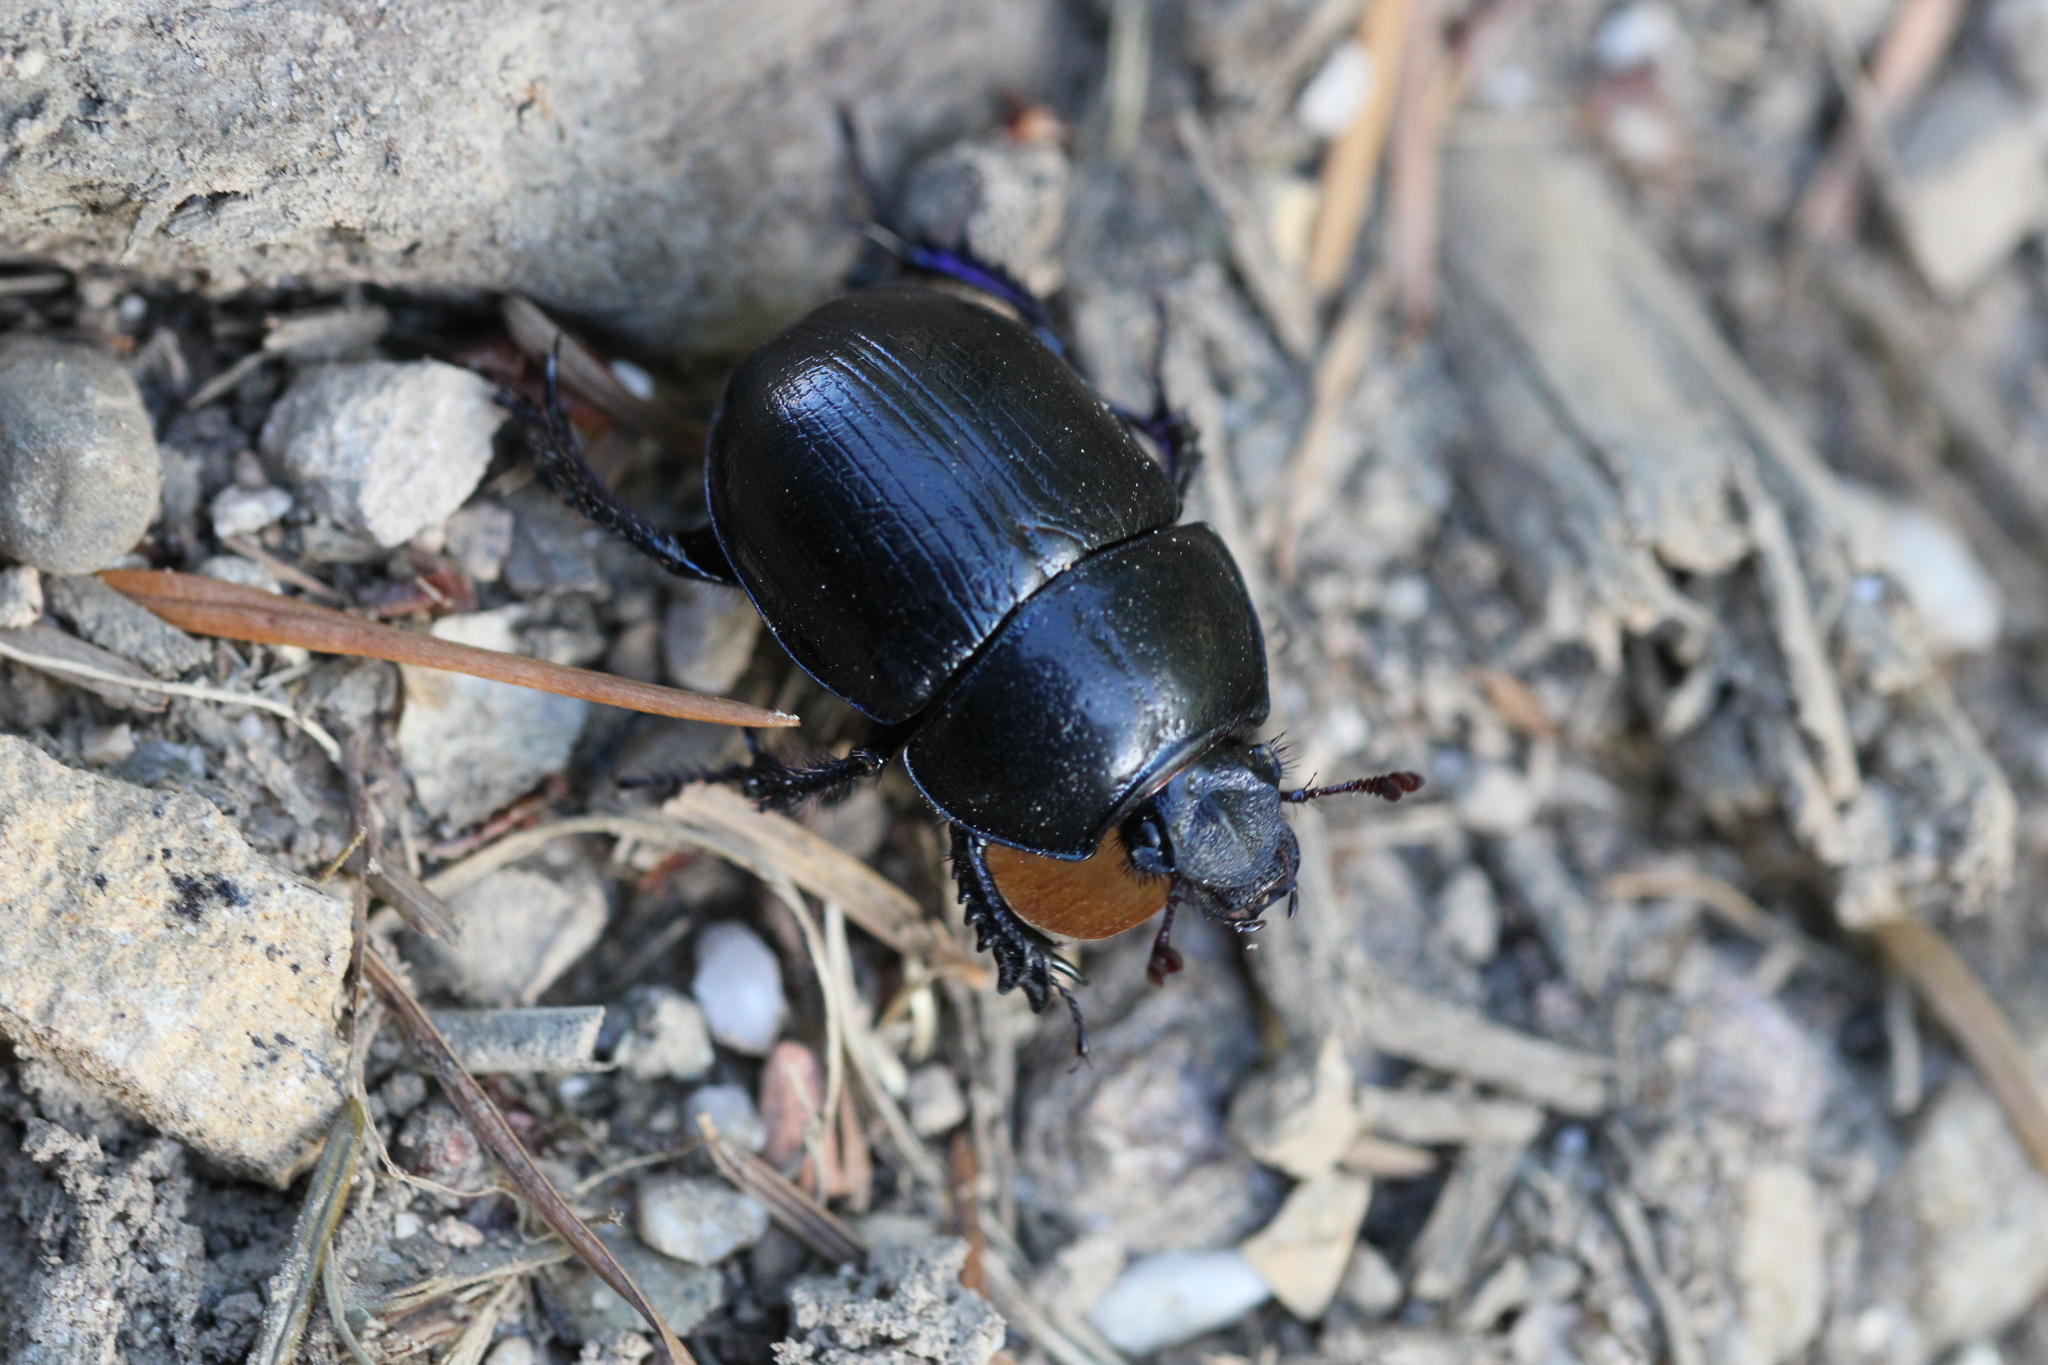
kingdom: Animalia
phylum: Arthropoda
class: Insecta
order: Coleoptera
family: Geotrupidae
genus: Anoplotrupes
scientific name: Anoplotrupes stercorosus
